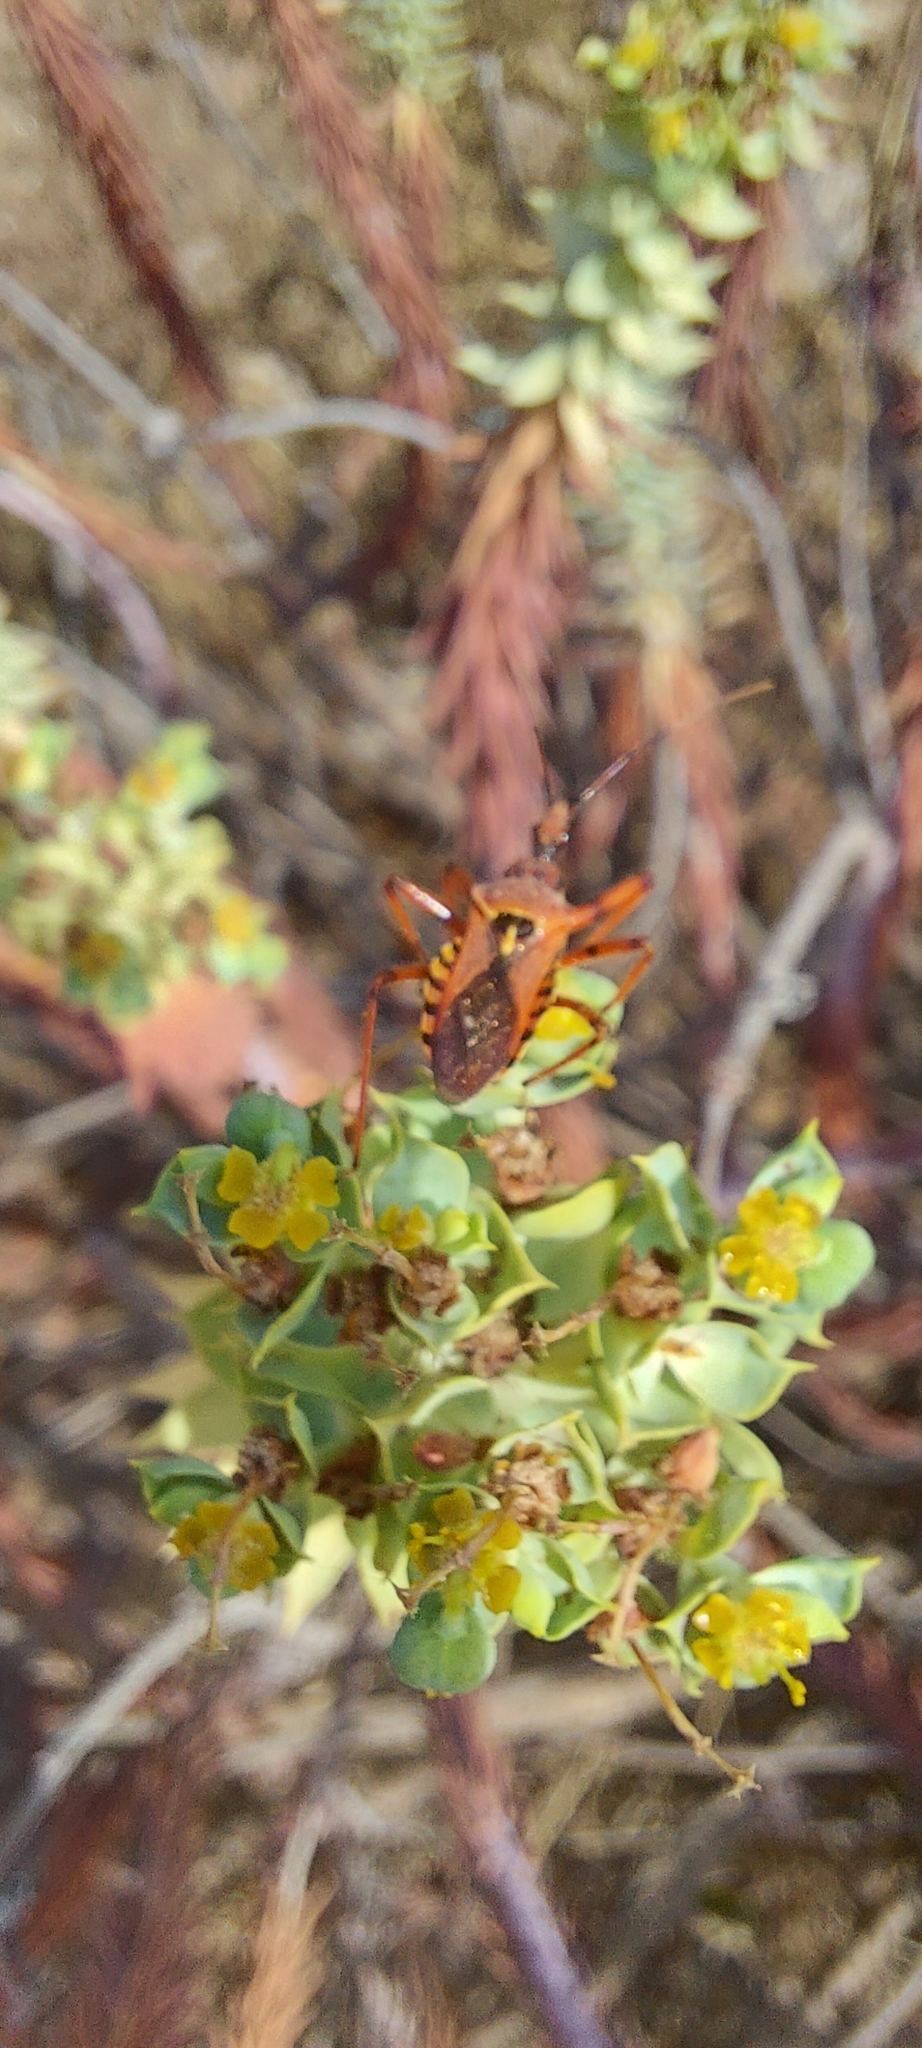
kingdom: Animalia
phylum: Arthropoda
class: Insecta
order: Hemiptera
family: Reduviidae
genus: Rhynocoris
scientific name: Rhynocoris erythropus
